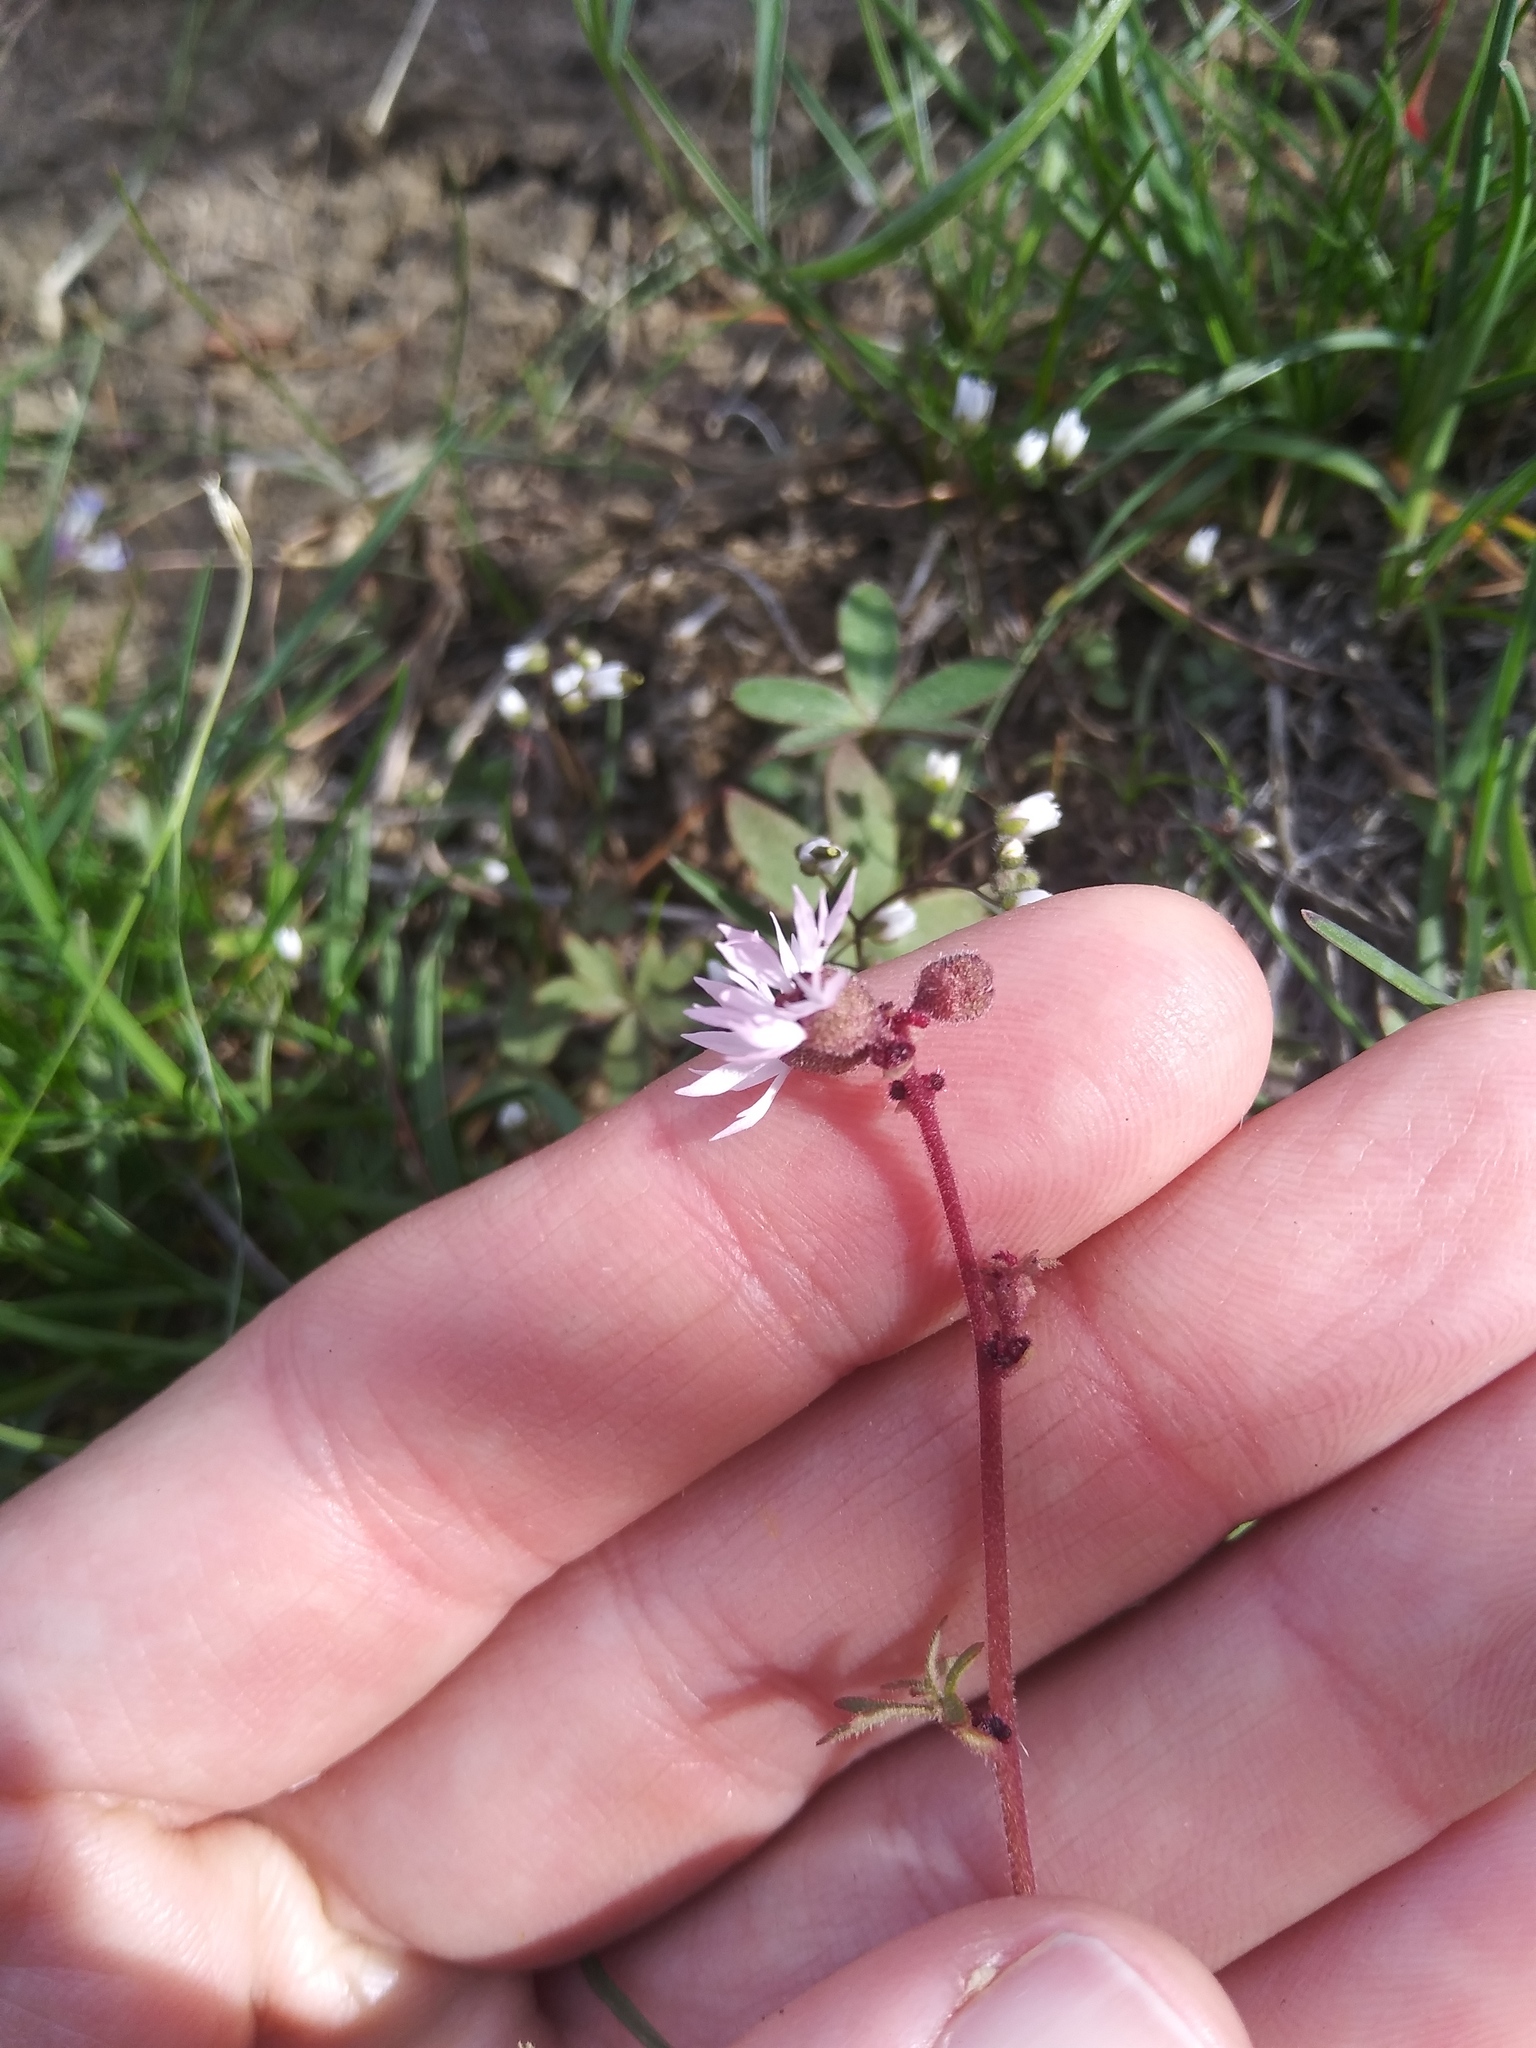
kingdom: Plantae
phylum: Tracheophyta
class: Magnoliopsida
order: Saxifragales
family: Saxifragaceae
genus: Lithophragma
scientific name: Lithophragma glabrum
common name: Bulbous prairie-star
